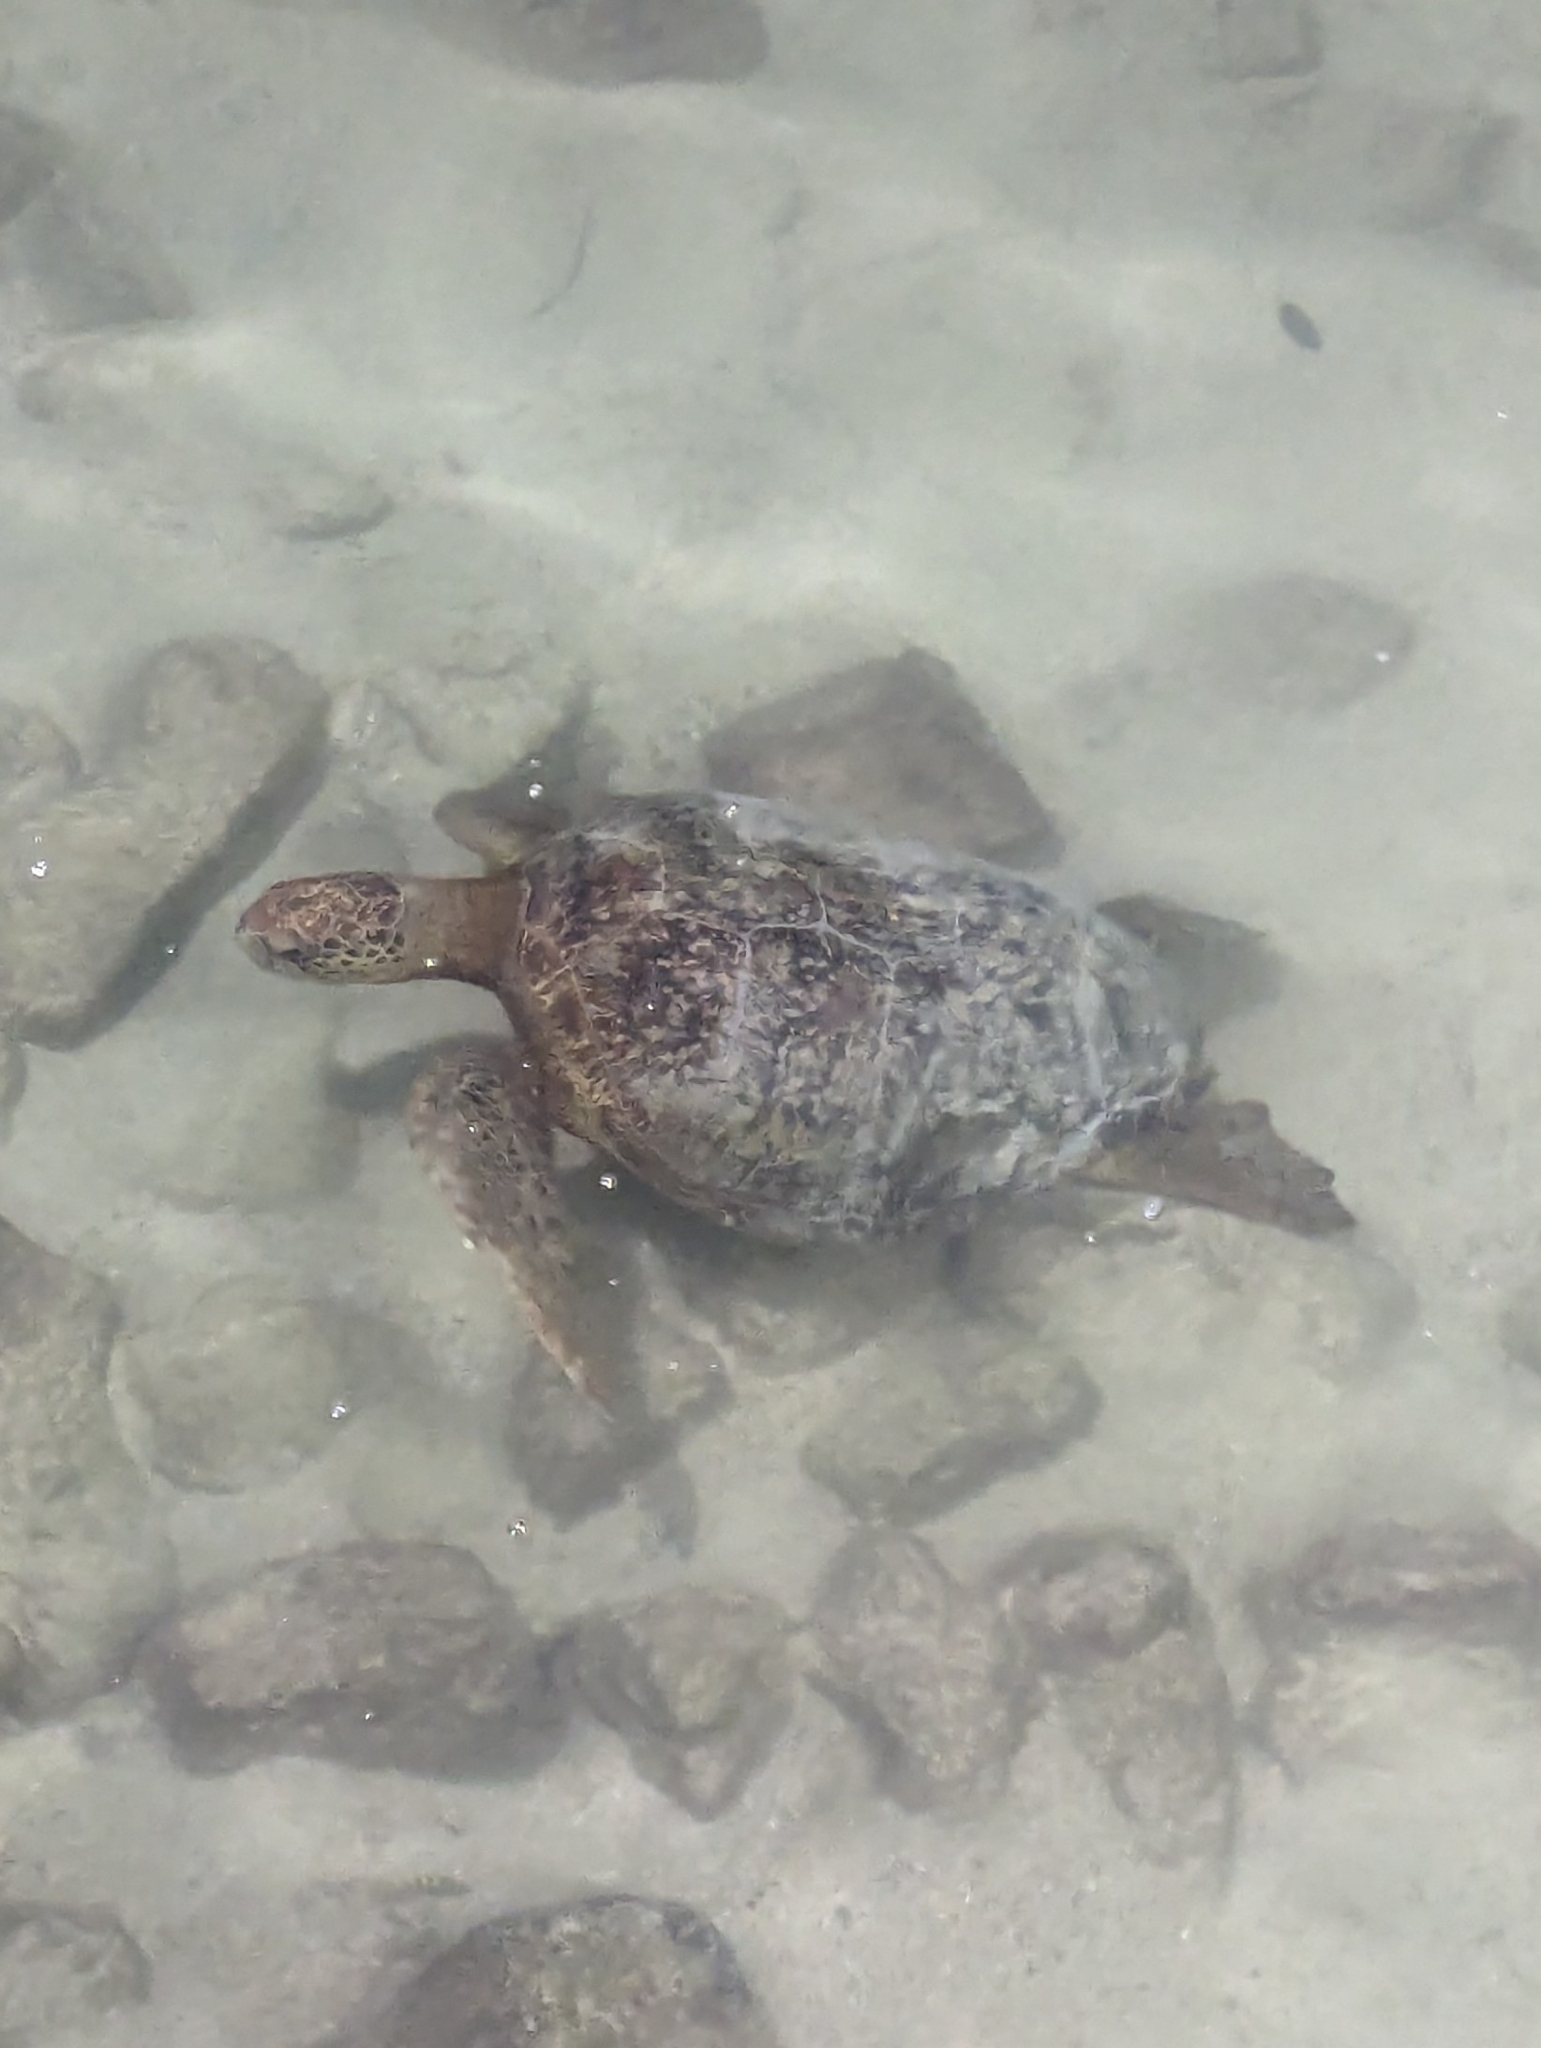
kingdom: Animalia
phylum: Chordata
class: Testudines
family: Cheloniidae
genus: Chelonia
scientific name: Chelonia mydas
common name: Green turtle
